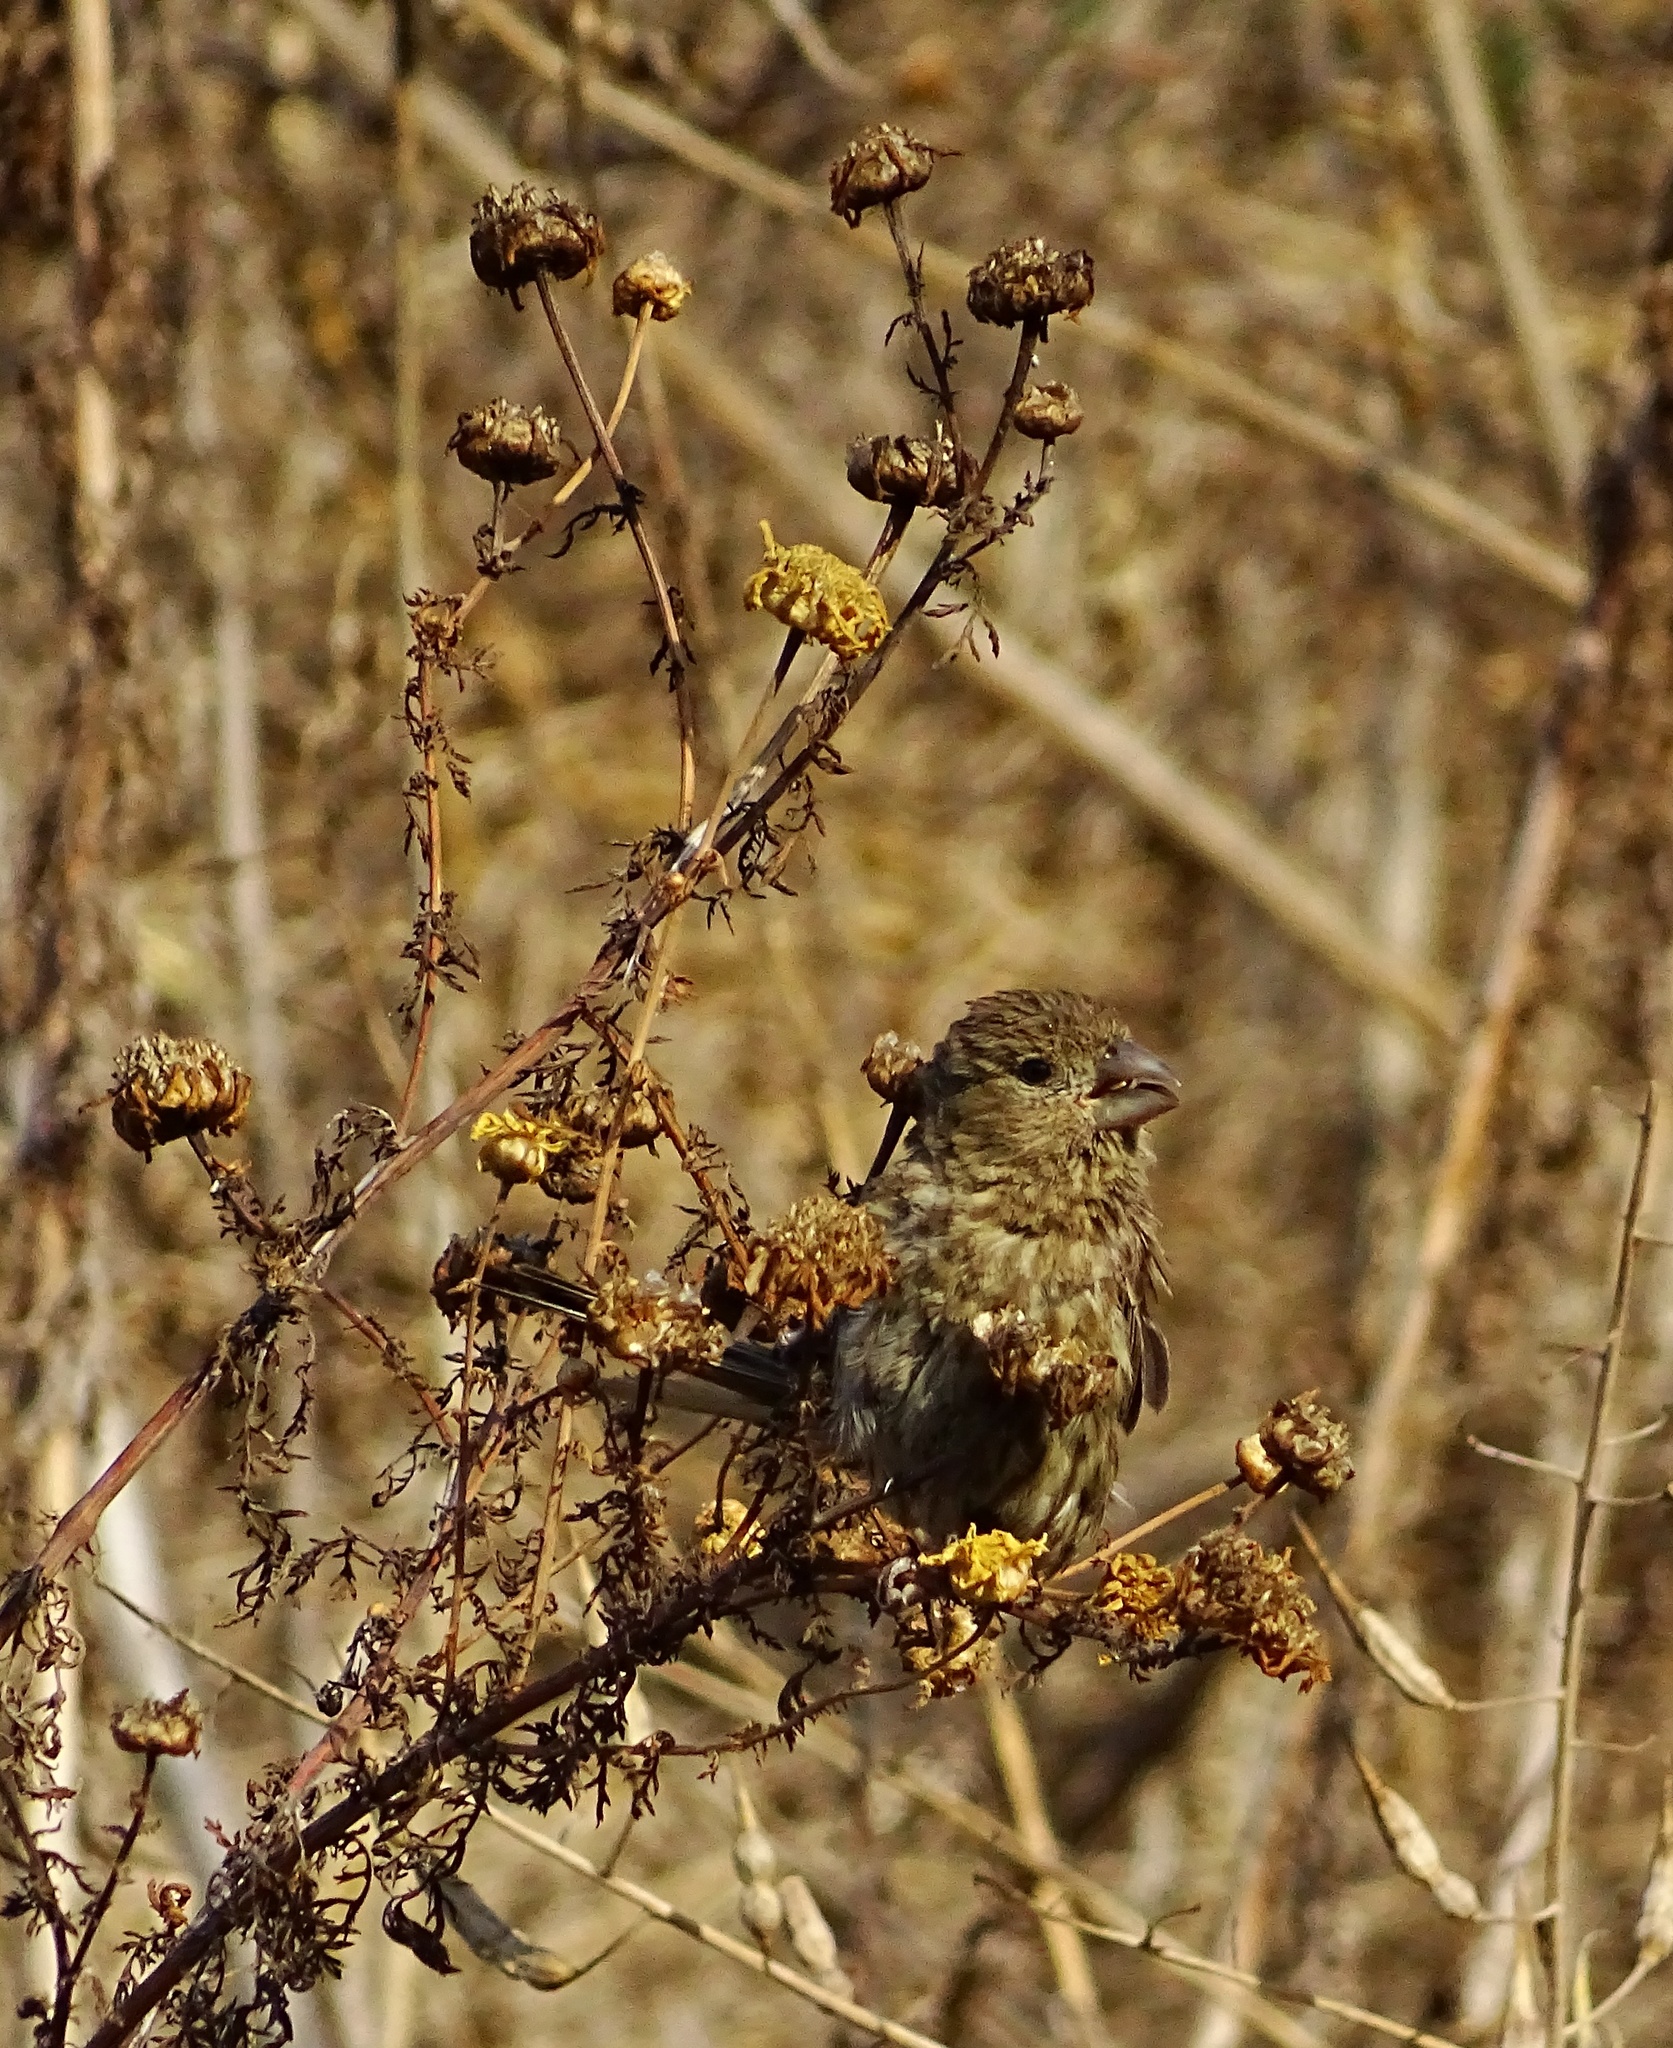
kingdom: Animalia
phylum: Chordata
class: Aves
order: Passeriformes
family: Fringillidae
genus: Haemorhous
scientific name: Haemorhous mexicanus
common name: House finch
